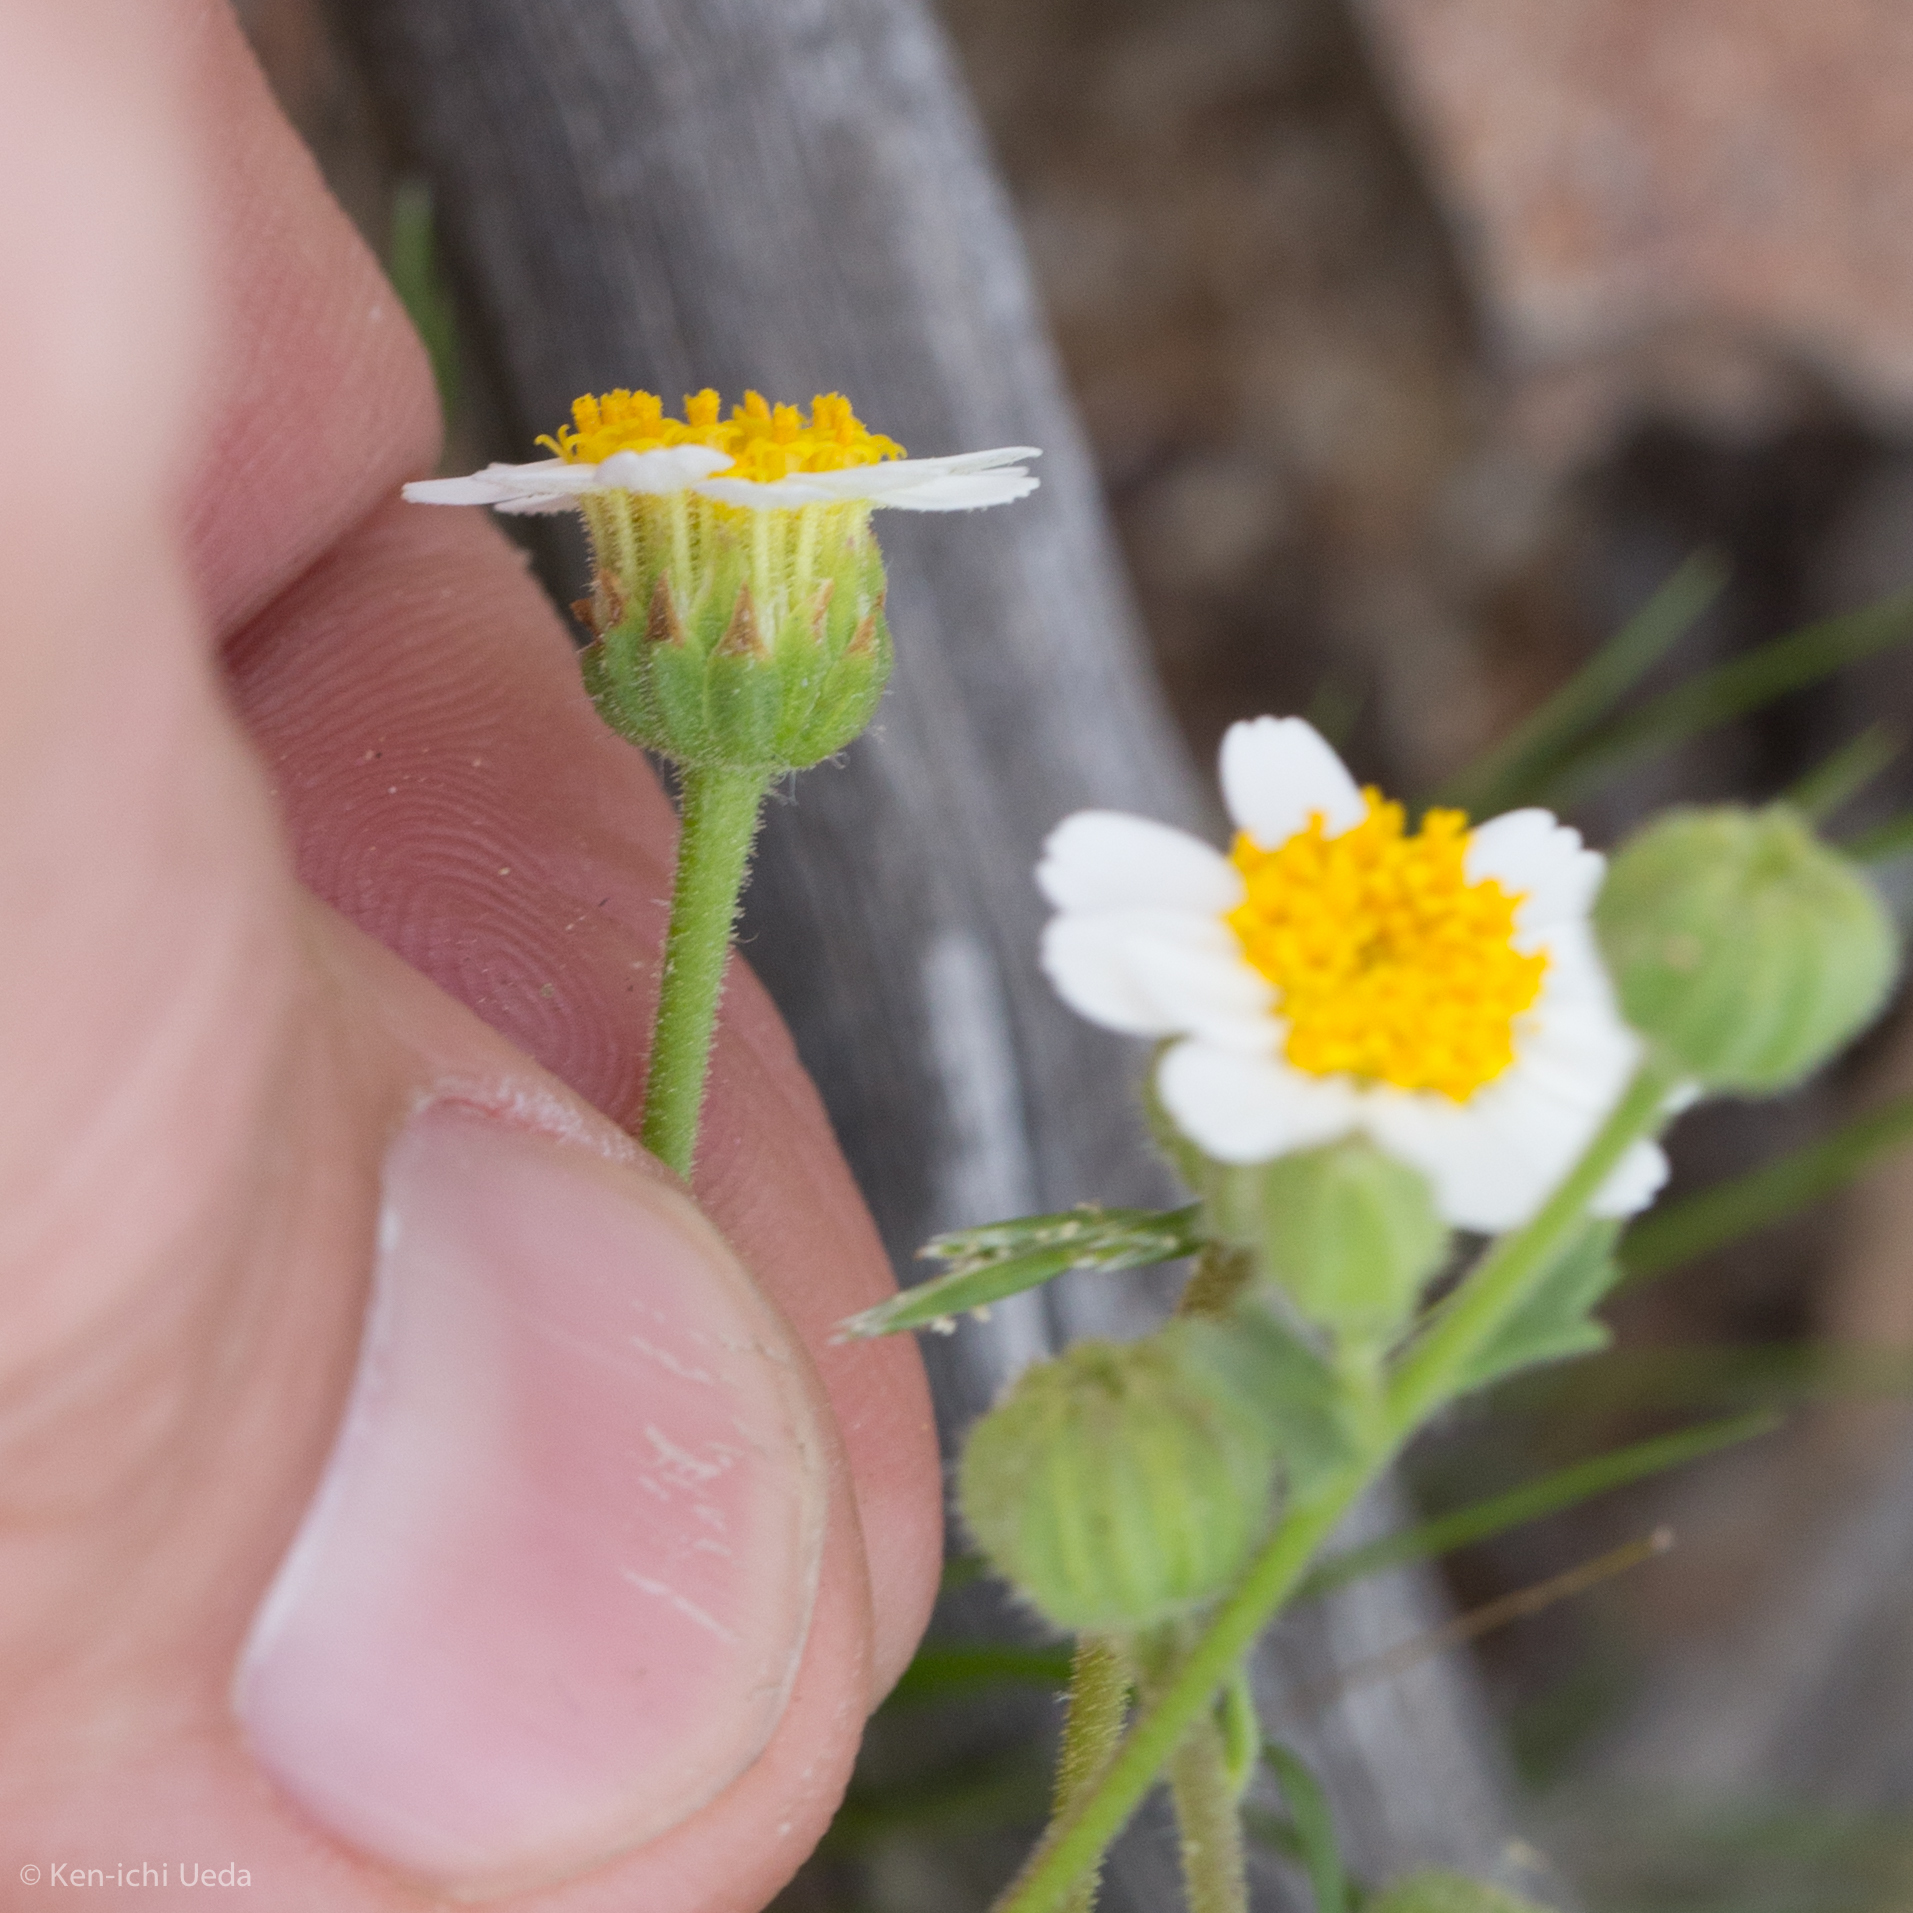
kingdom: Plantae
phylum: Tracheophyta
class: Magnoliopsida
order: Asterales
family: Asteraceae
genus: Laphamia
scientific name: Laphamia emoryi
